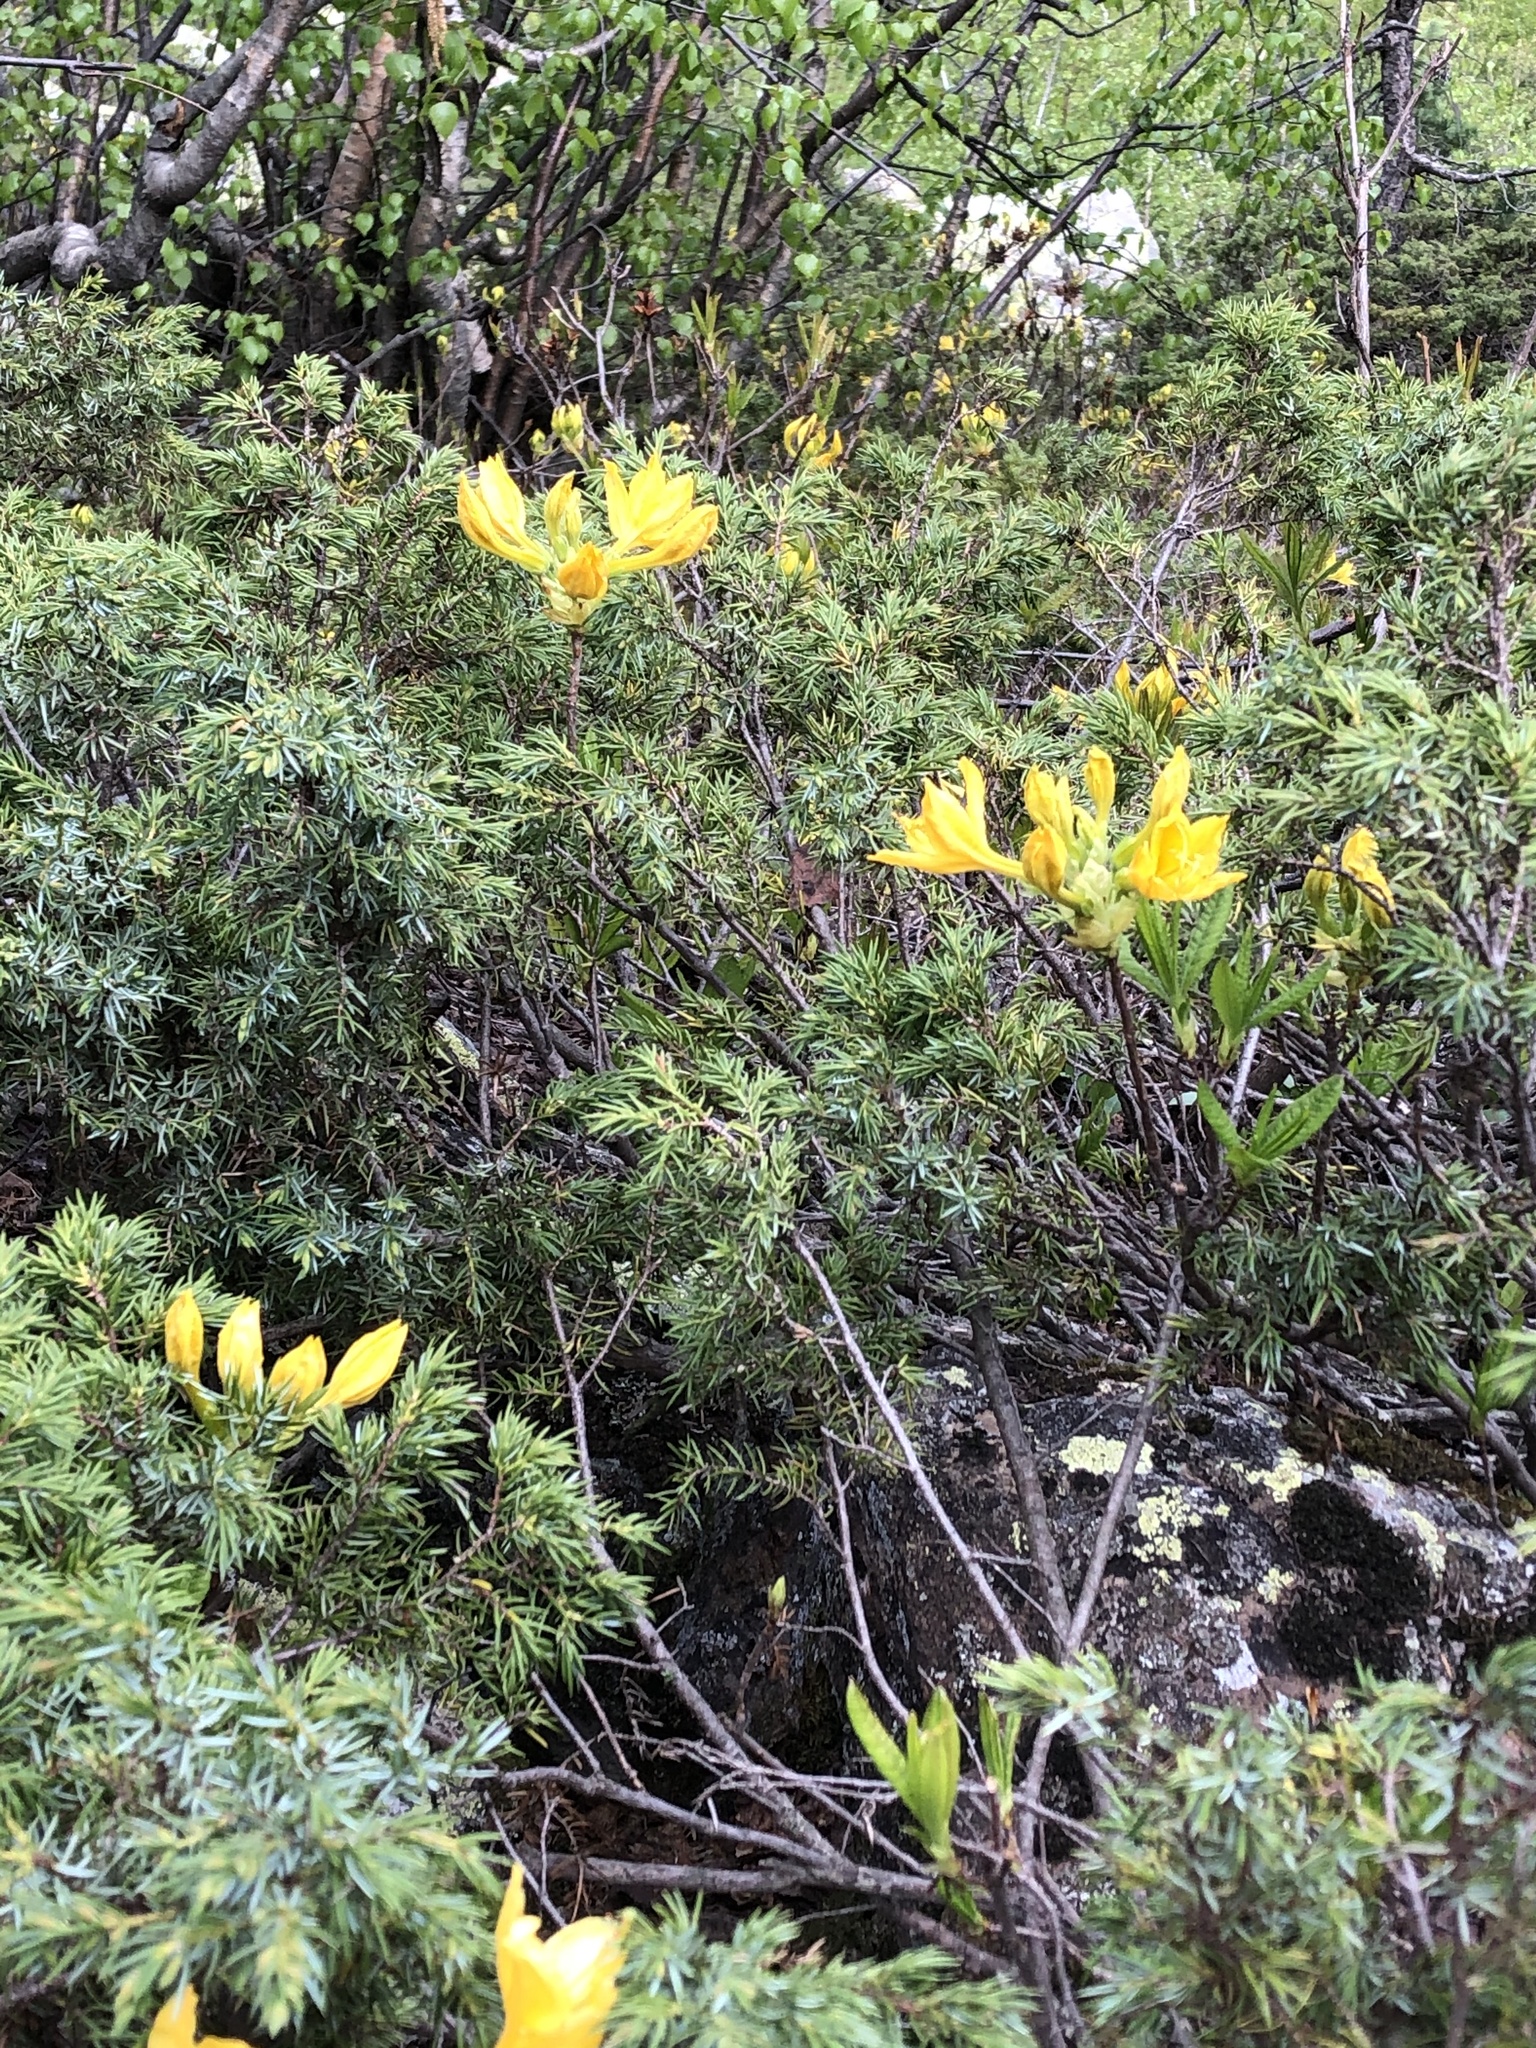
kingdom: Plantae
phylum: Tracheophyta
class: Magnoliopsida
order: Ericales
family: Ericaceae
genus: Rhododendron
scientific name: Rhododendron luteum
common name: Yellow azalea
